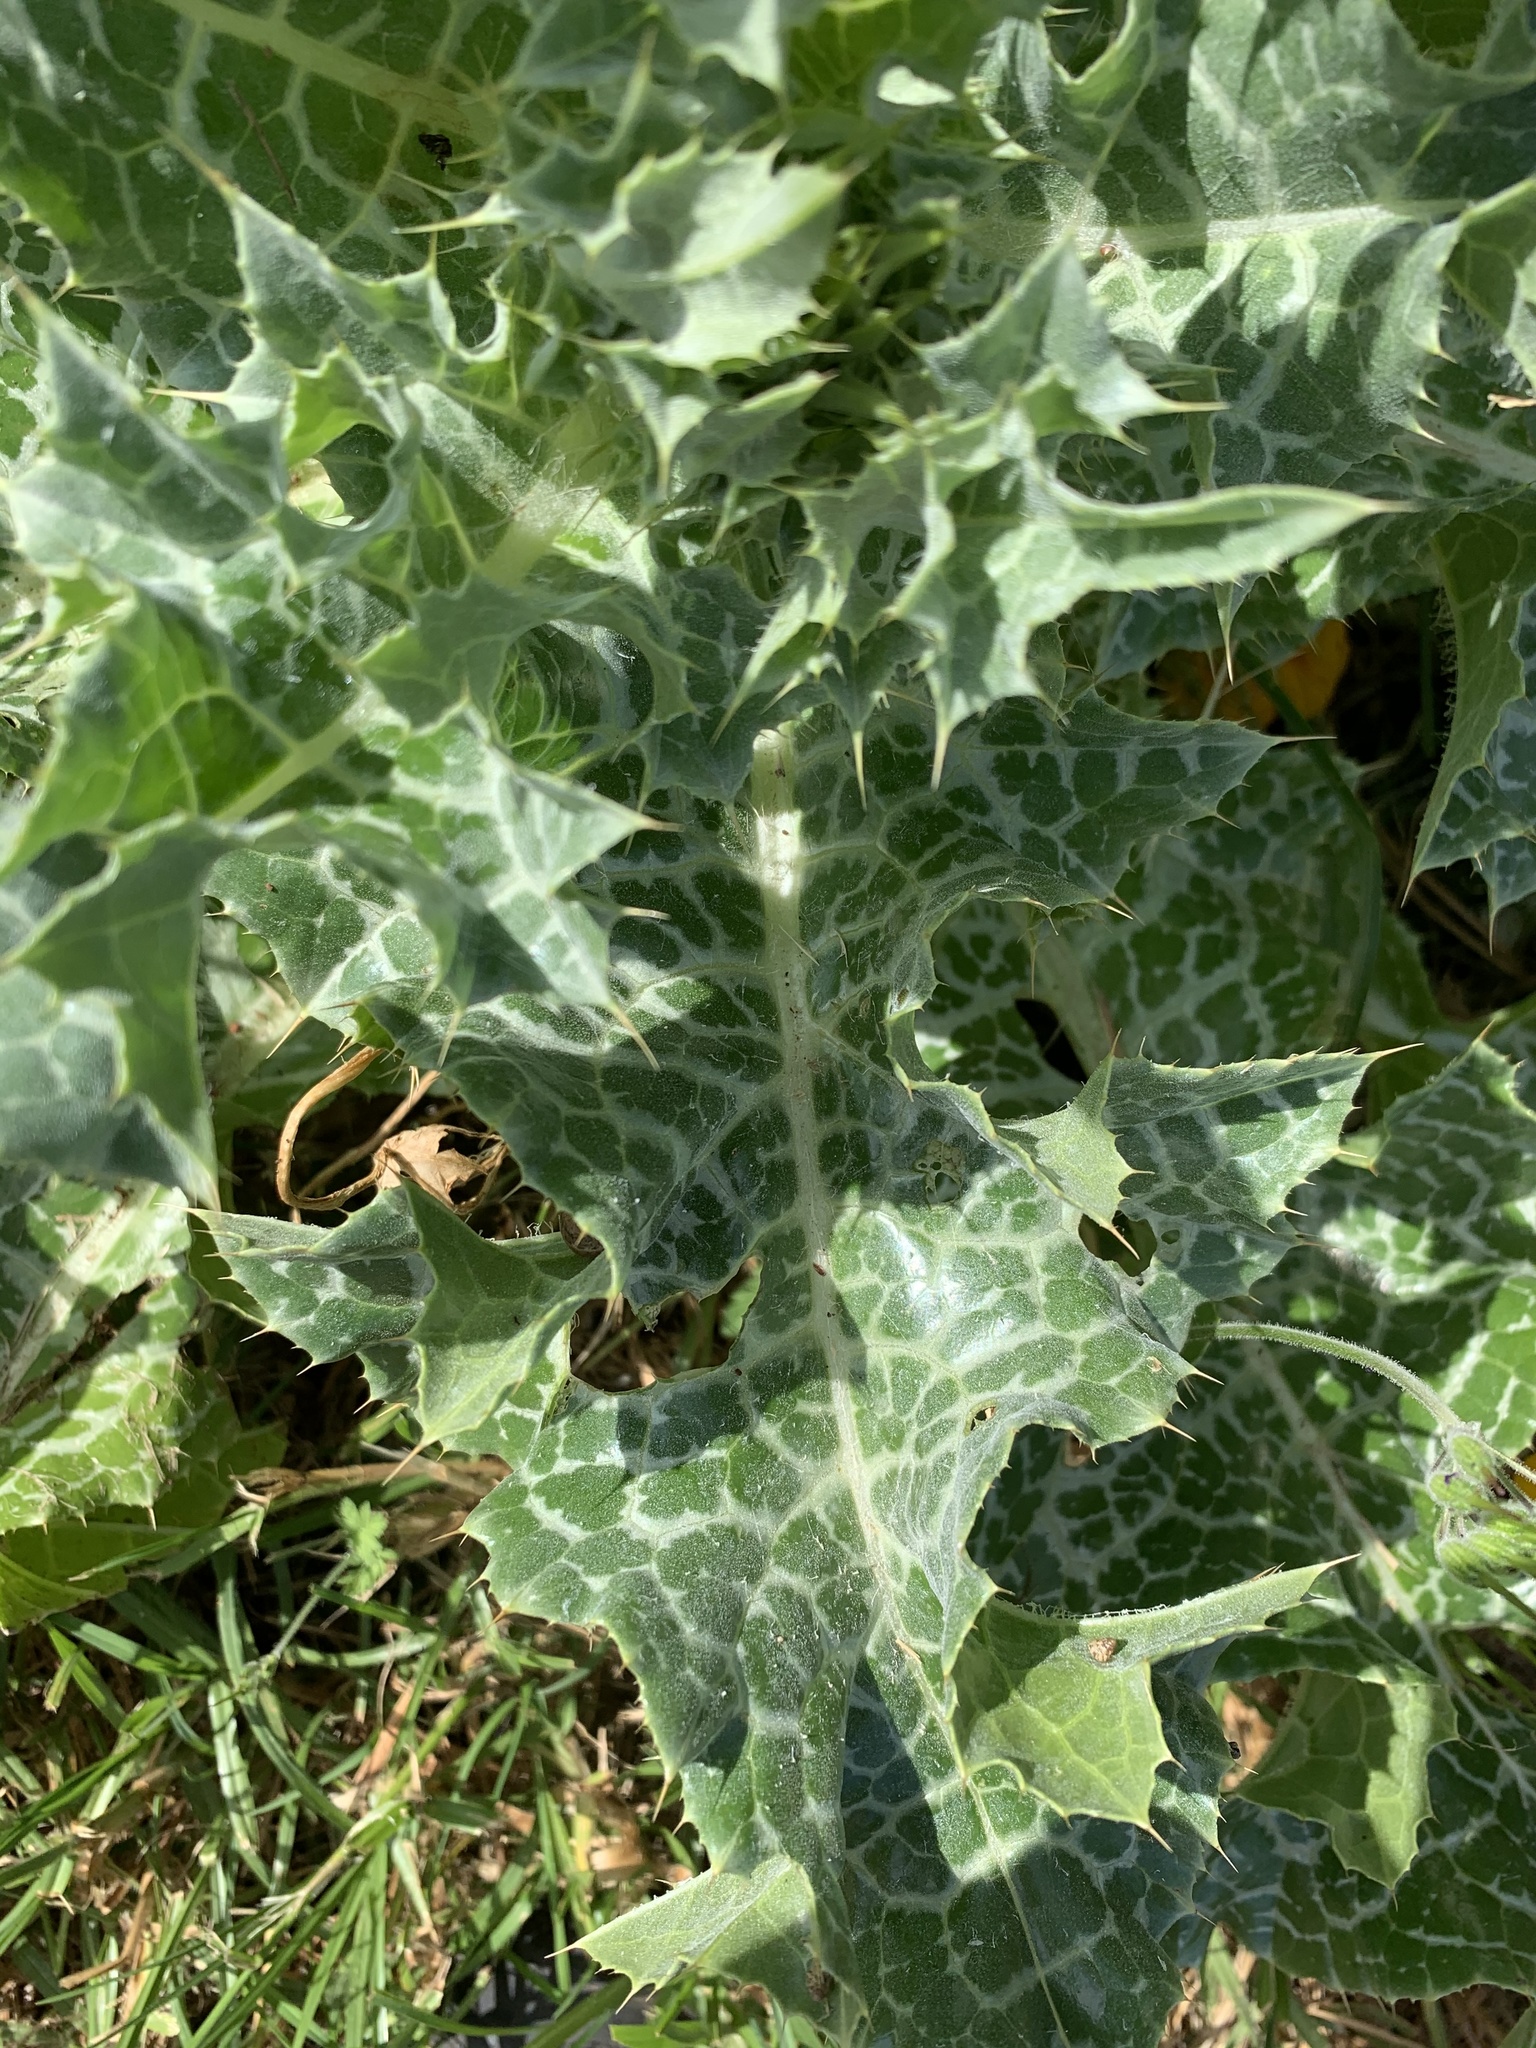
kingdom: Plantae
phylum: Tracheophyta
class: Magnoliopsida
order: Asterales
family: Asteraceae
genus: Silybum
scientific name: Silybum marianum
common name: Milk thistle
